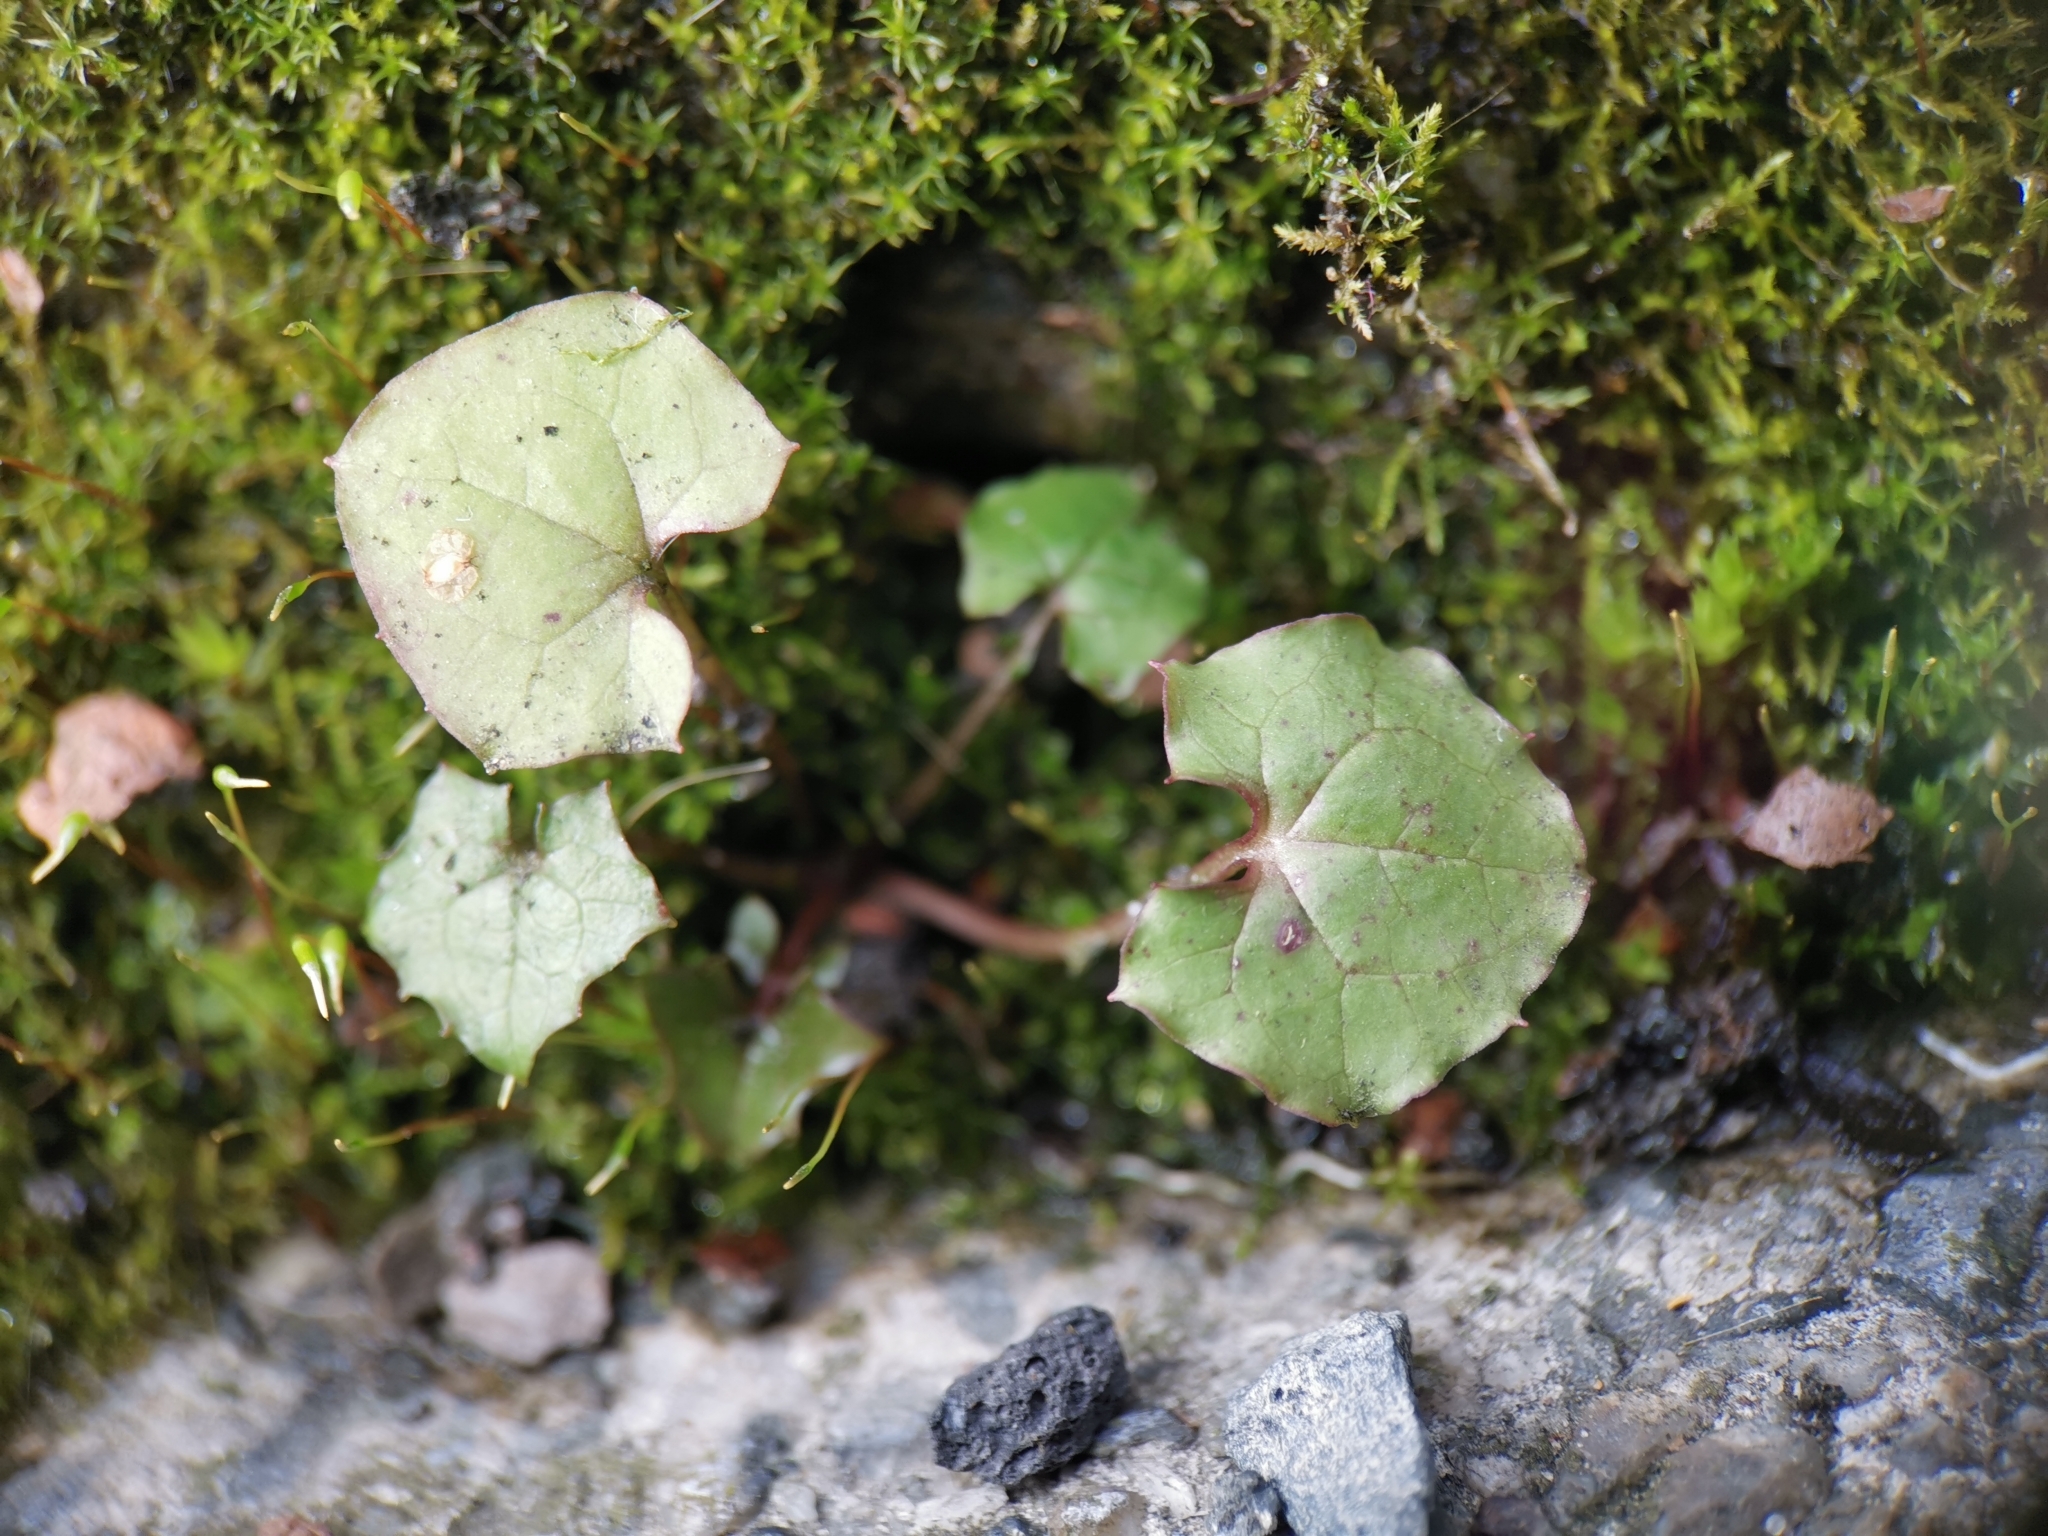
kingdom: Plantae
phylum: Tracheophyta
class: Magnoliopsida
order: Asterales
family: Asteraceae
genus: Mycelis
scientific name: Mycelis muralis
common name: Wall lettuce
